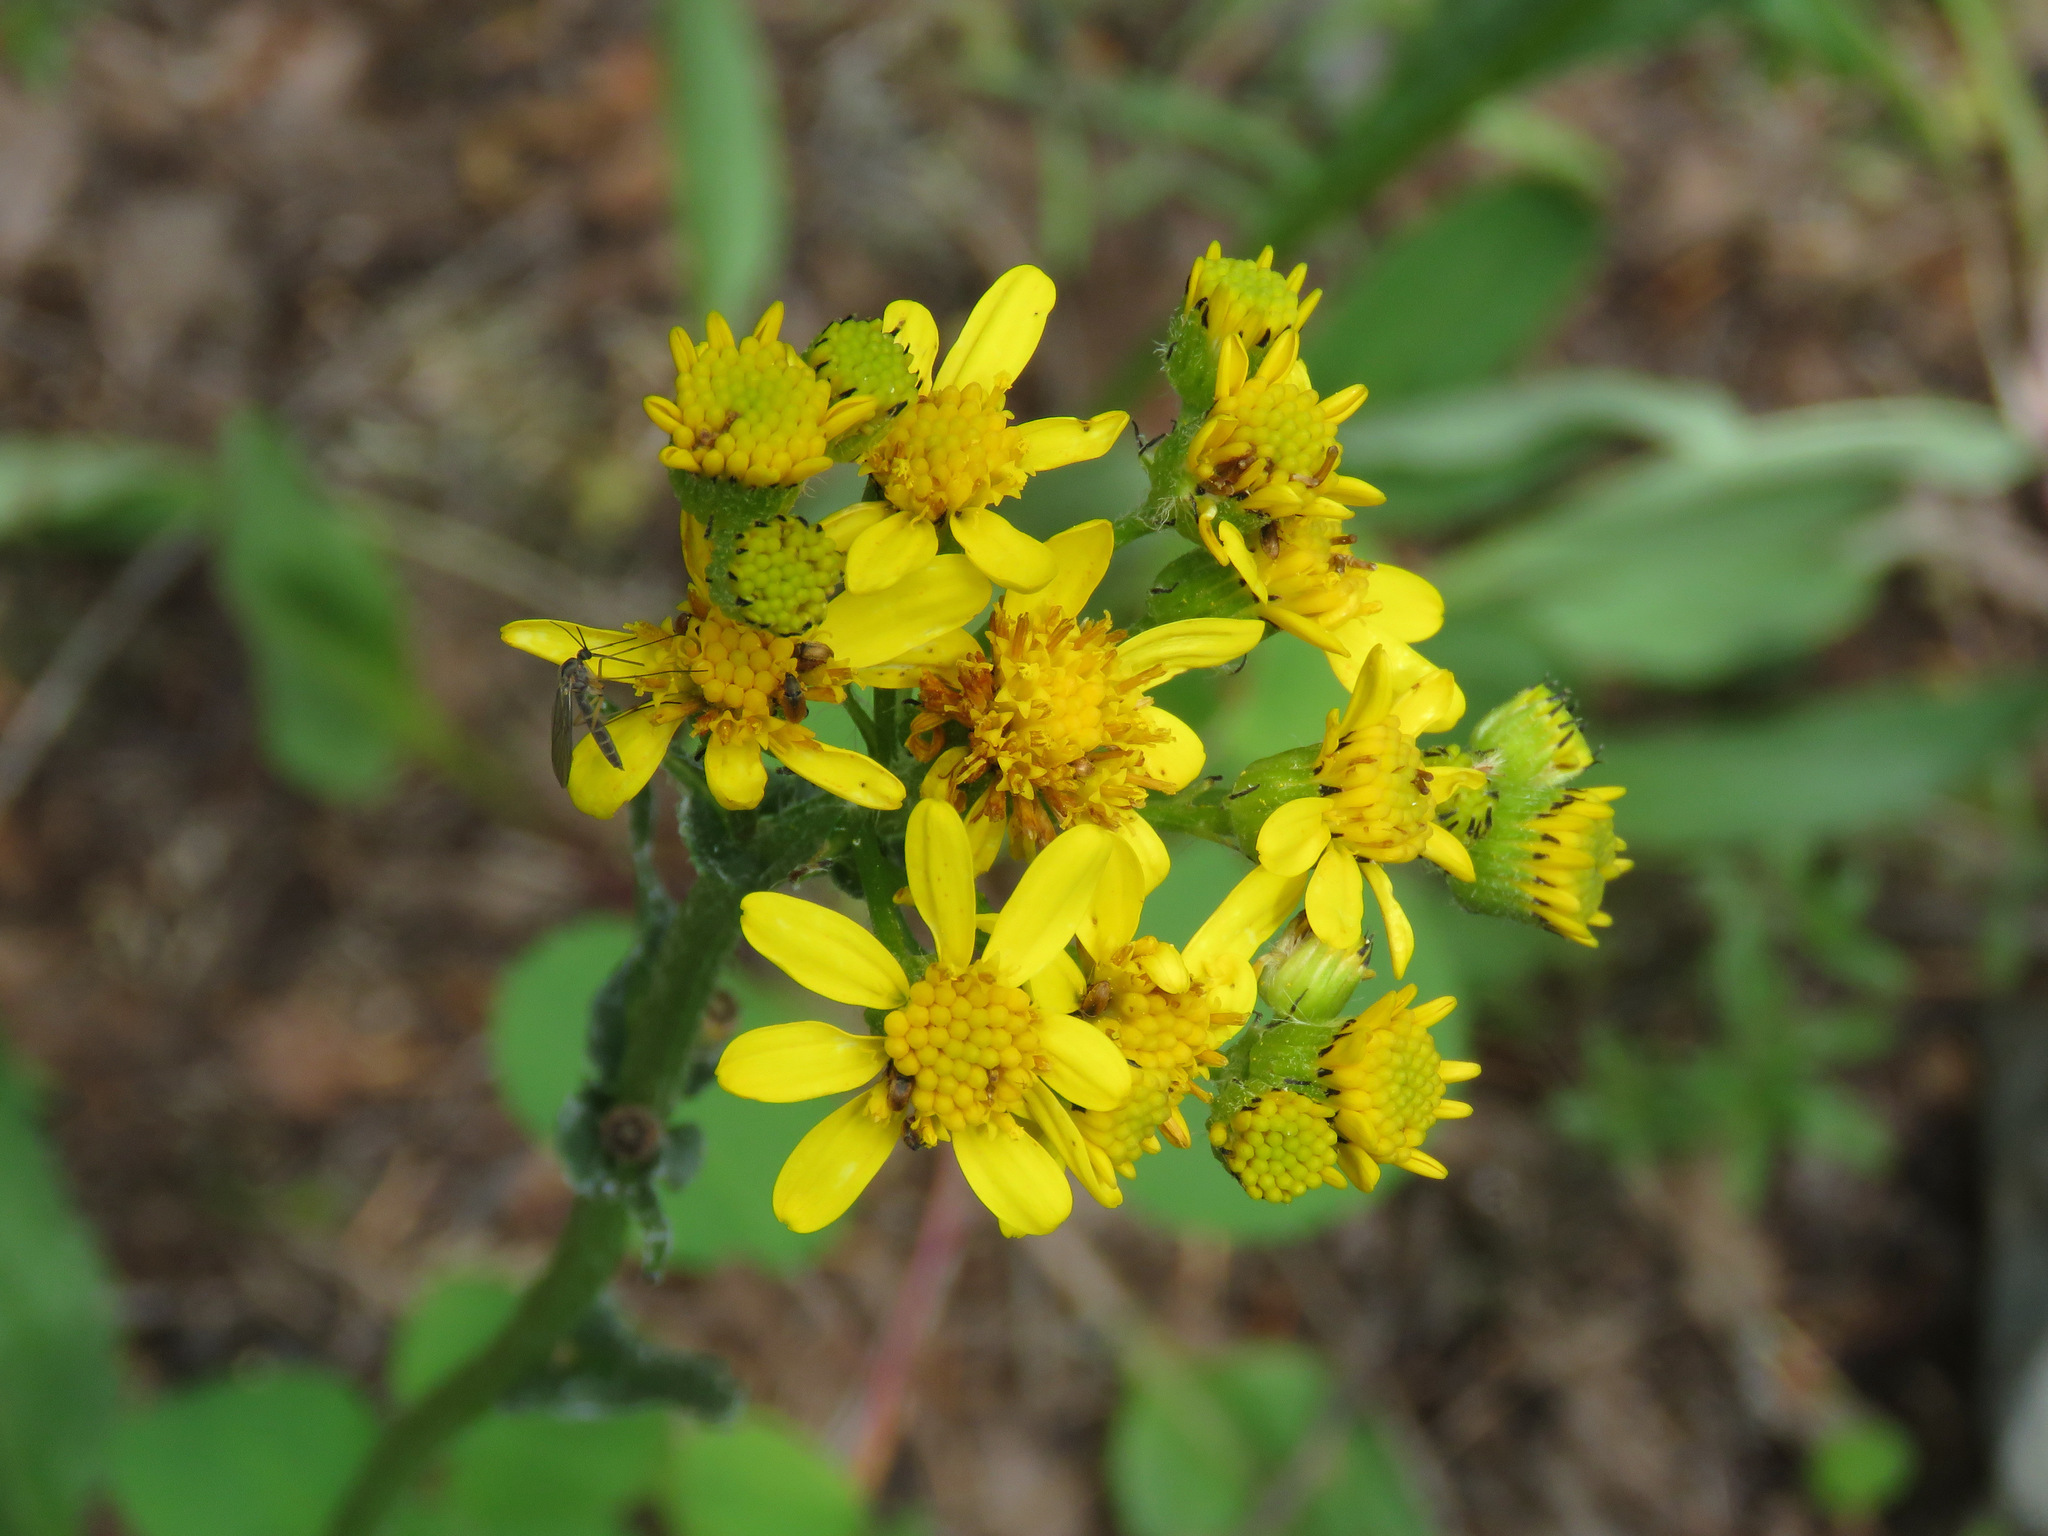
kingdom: Plantae
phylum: Tracheophyta
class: Magnoliopsida
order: Asterales
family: Asteraceae
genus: Senecio
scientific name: Senecio integerrimus
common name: Gaugeplant
